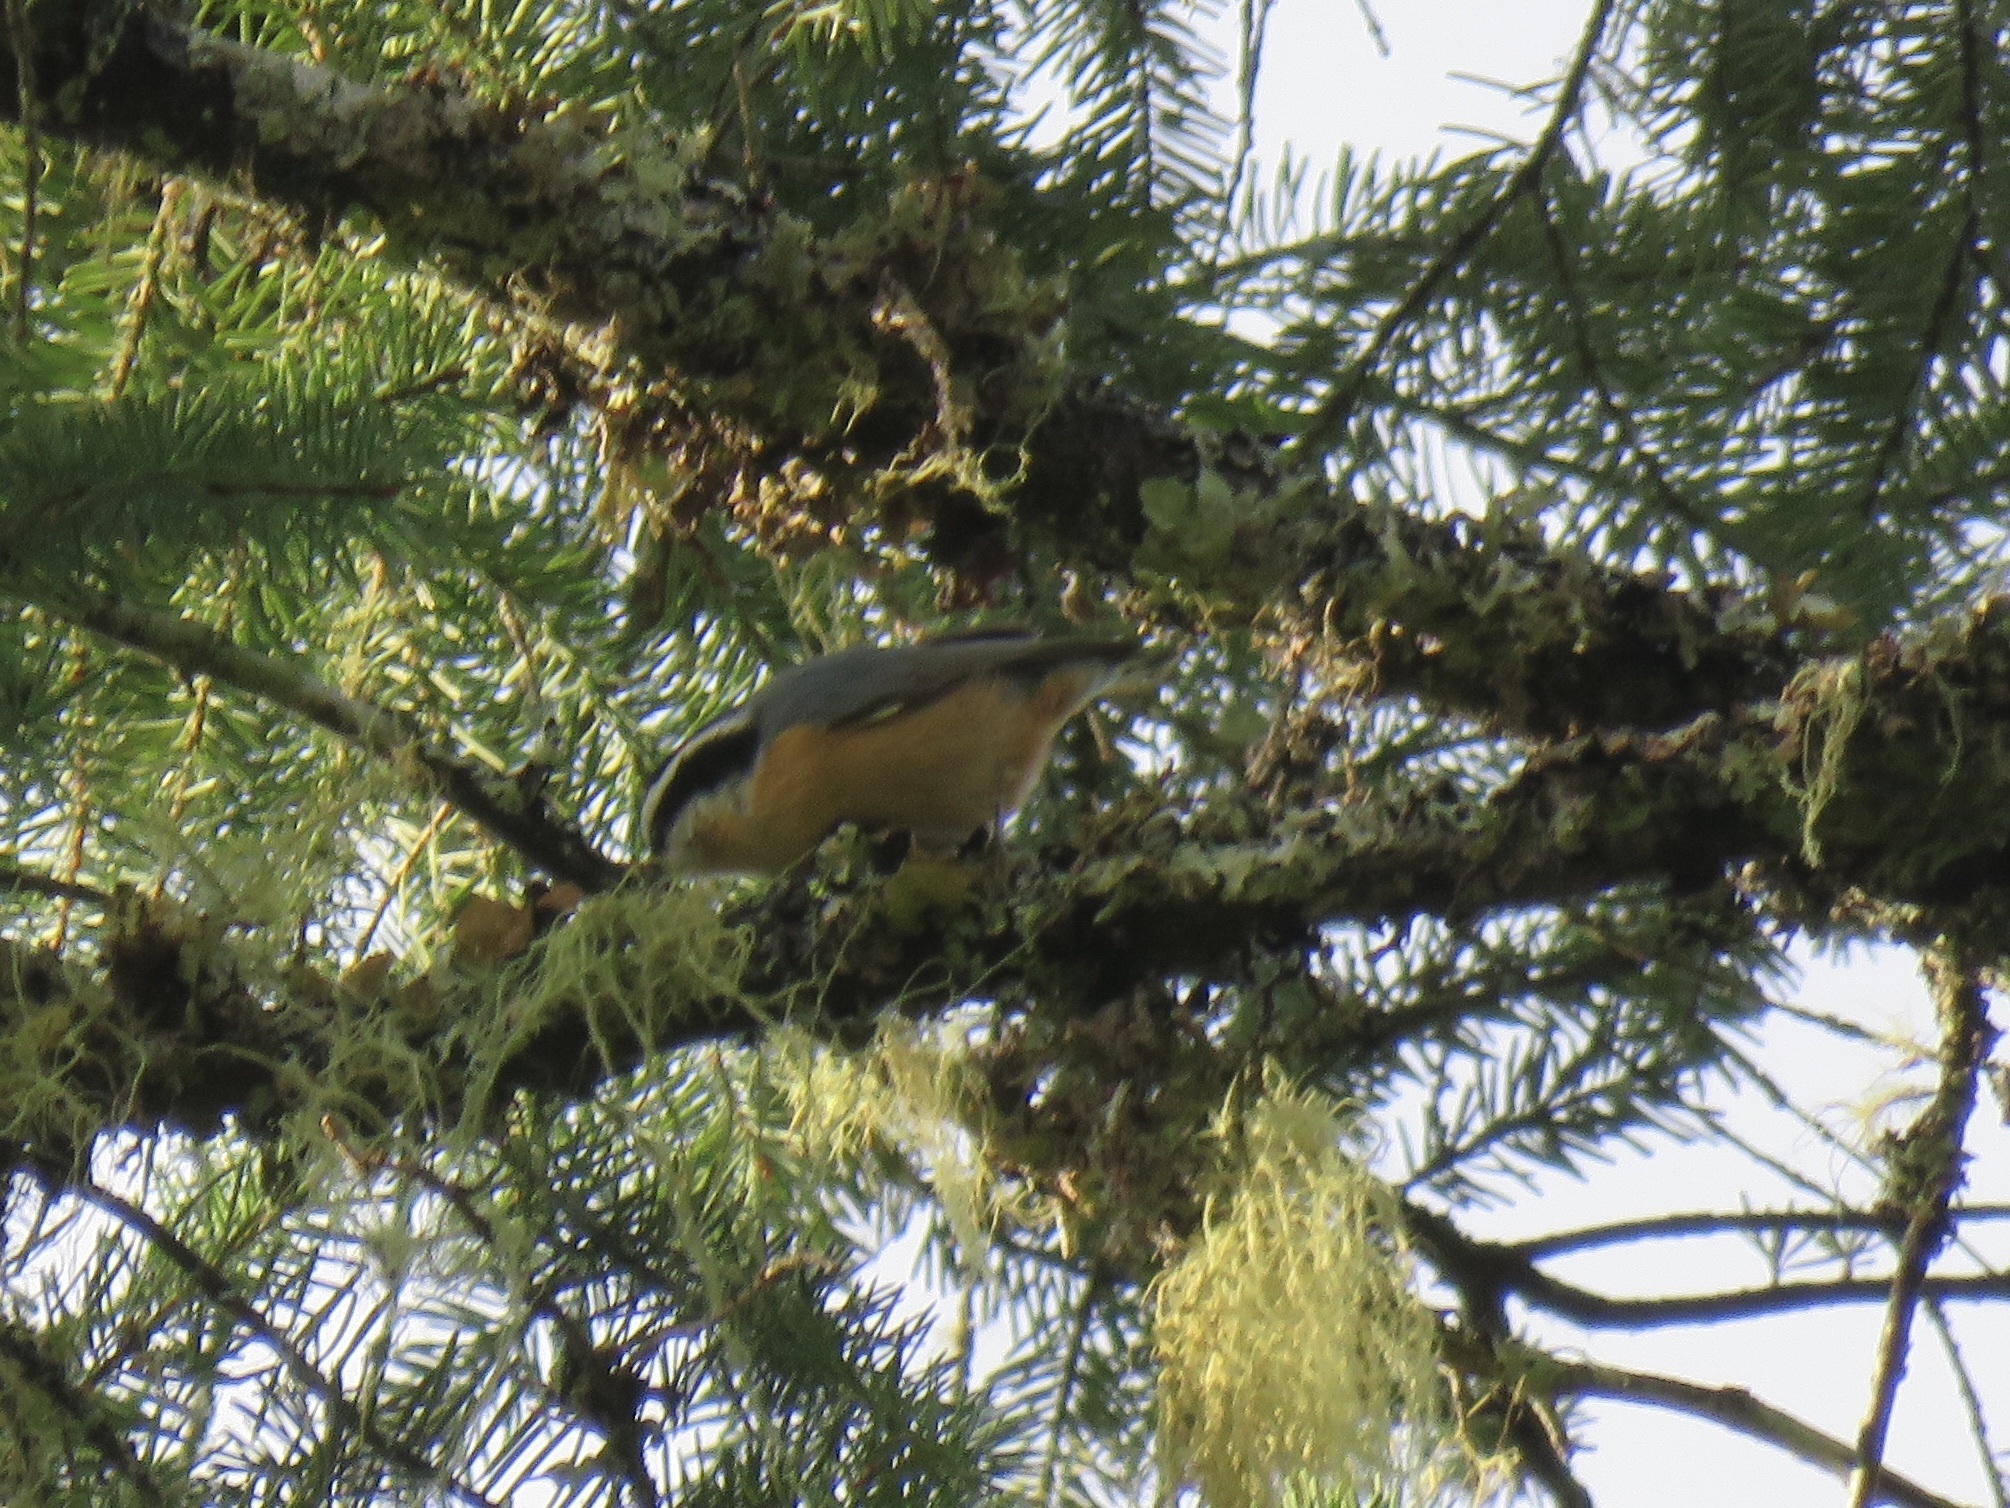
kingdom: Animalia
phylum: Chordata
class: Aves
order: Passeriformes
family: Sittidae
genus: Sitta
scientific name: Sitta canadensis
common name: Red-breasted nuthatch
